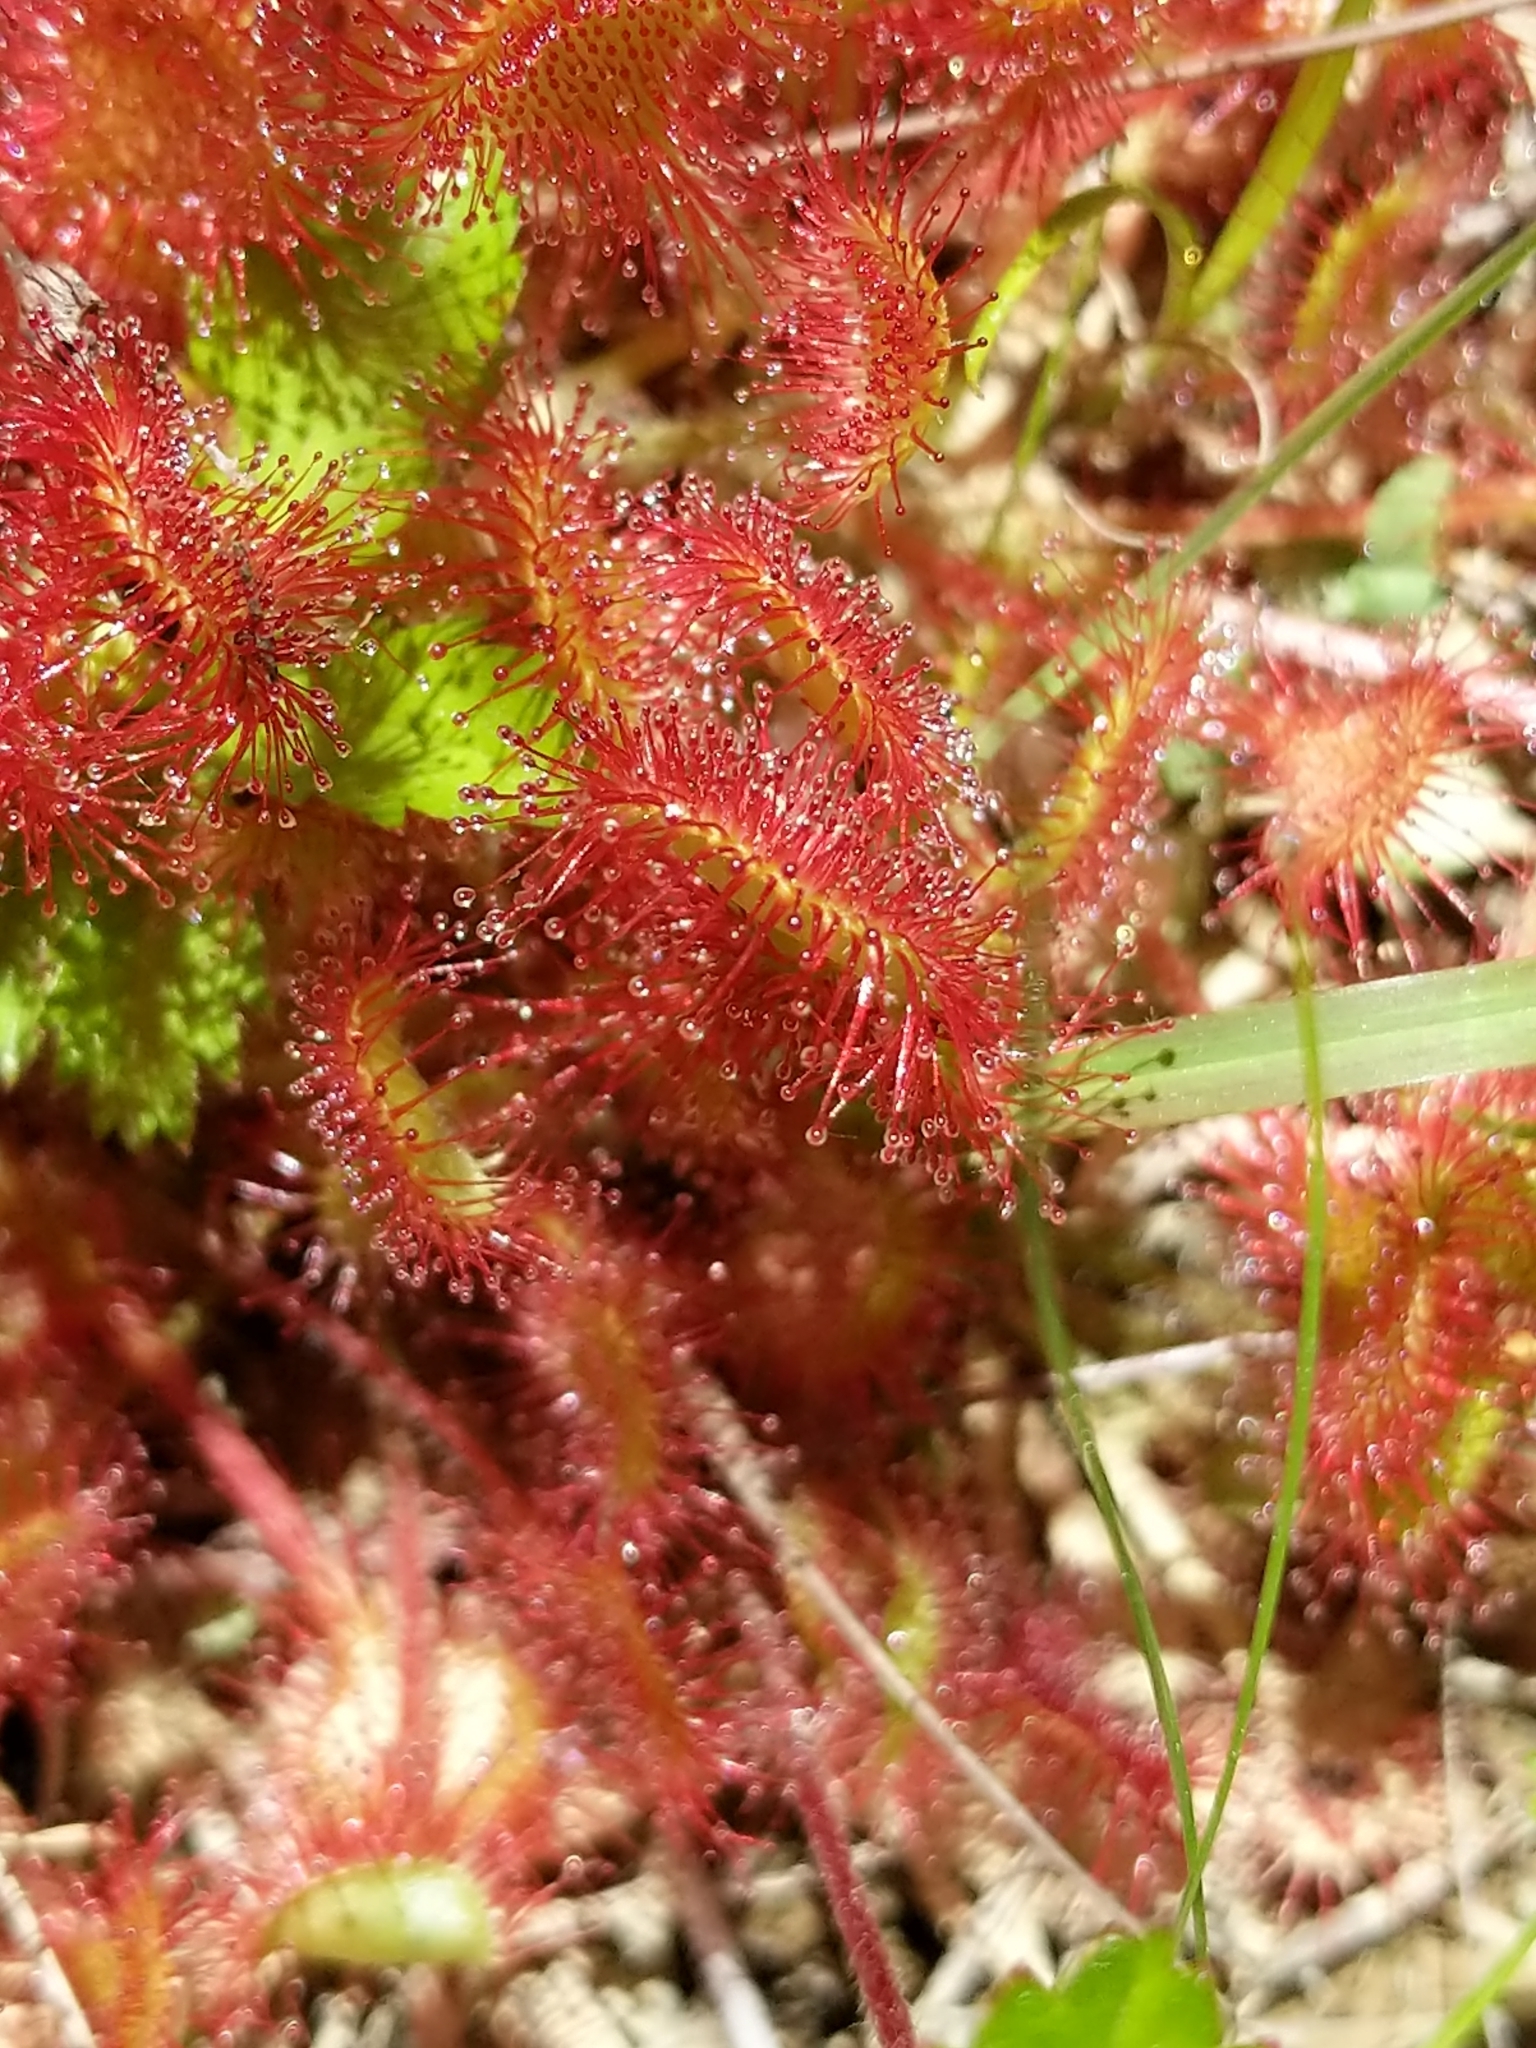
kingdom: Plantae
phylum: Tracheophyta
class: Magnoliopsida
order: Caryophyllales
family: Droseraceae
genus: Drosera
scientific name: Drosera rotundifolia
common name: Round-leaved sundew
